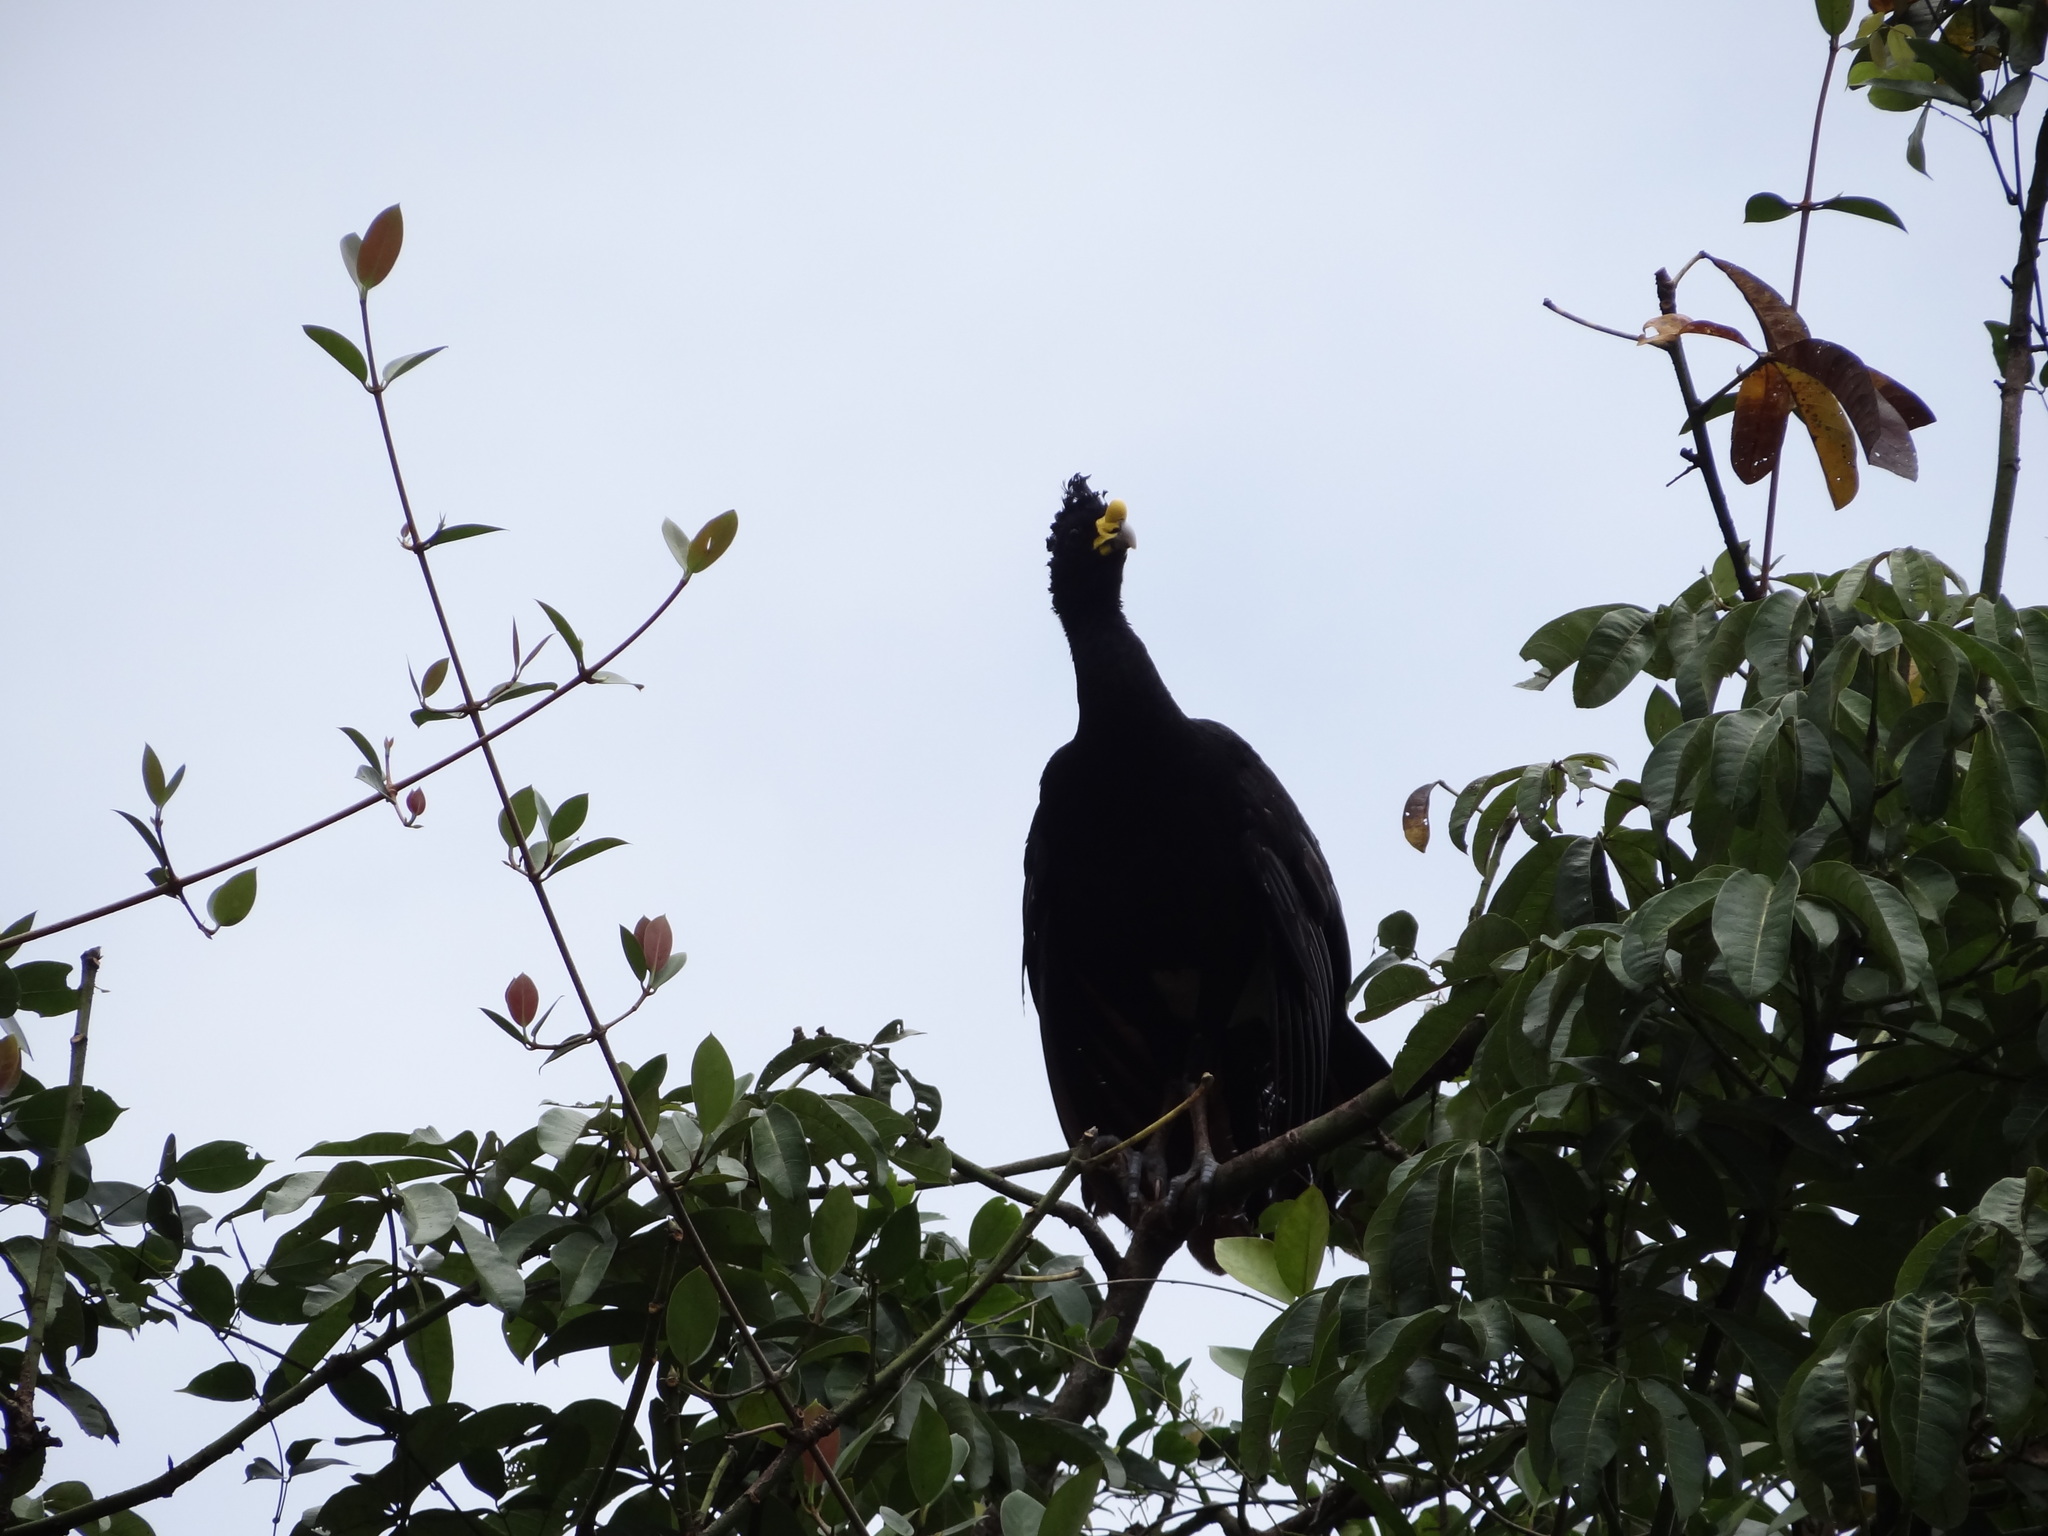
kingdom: Animalia
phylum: Chordata
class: Aves
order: Galliformes
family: Cracidae
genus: Crax
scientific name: Crax rubra
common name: Great curassow
